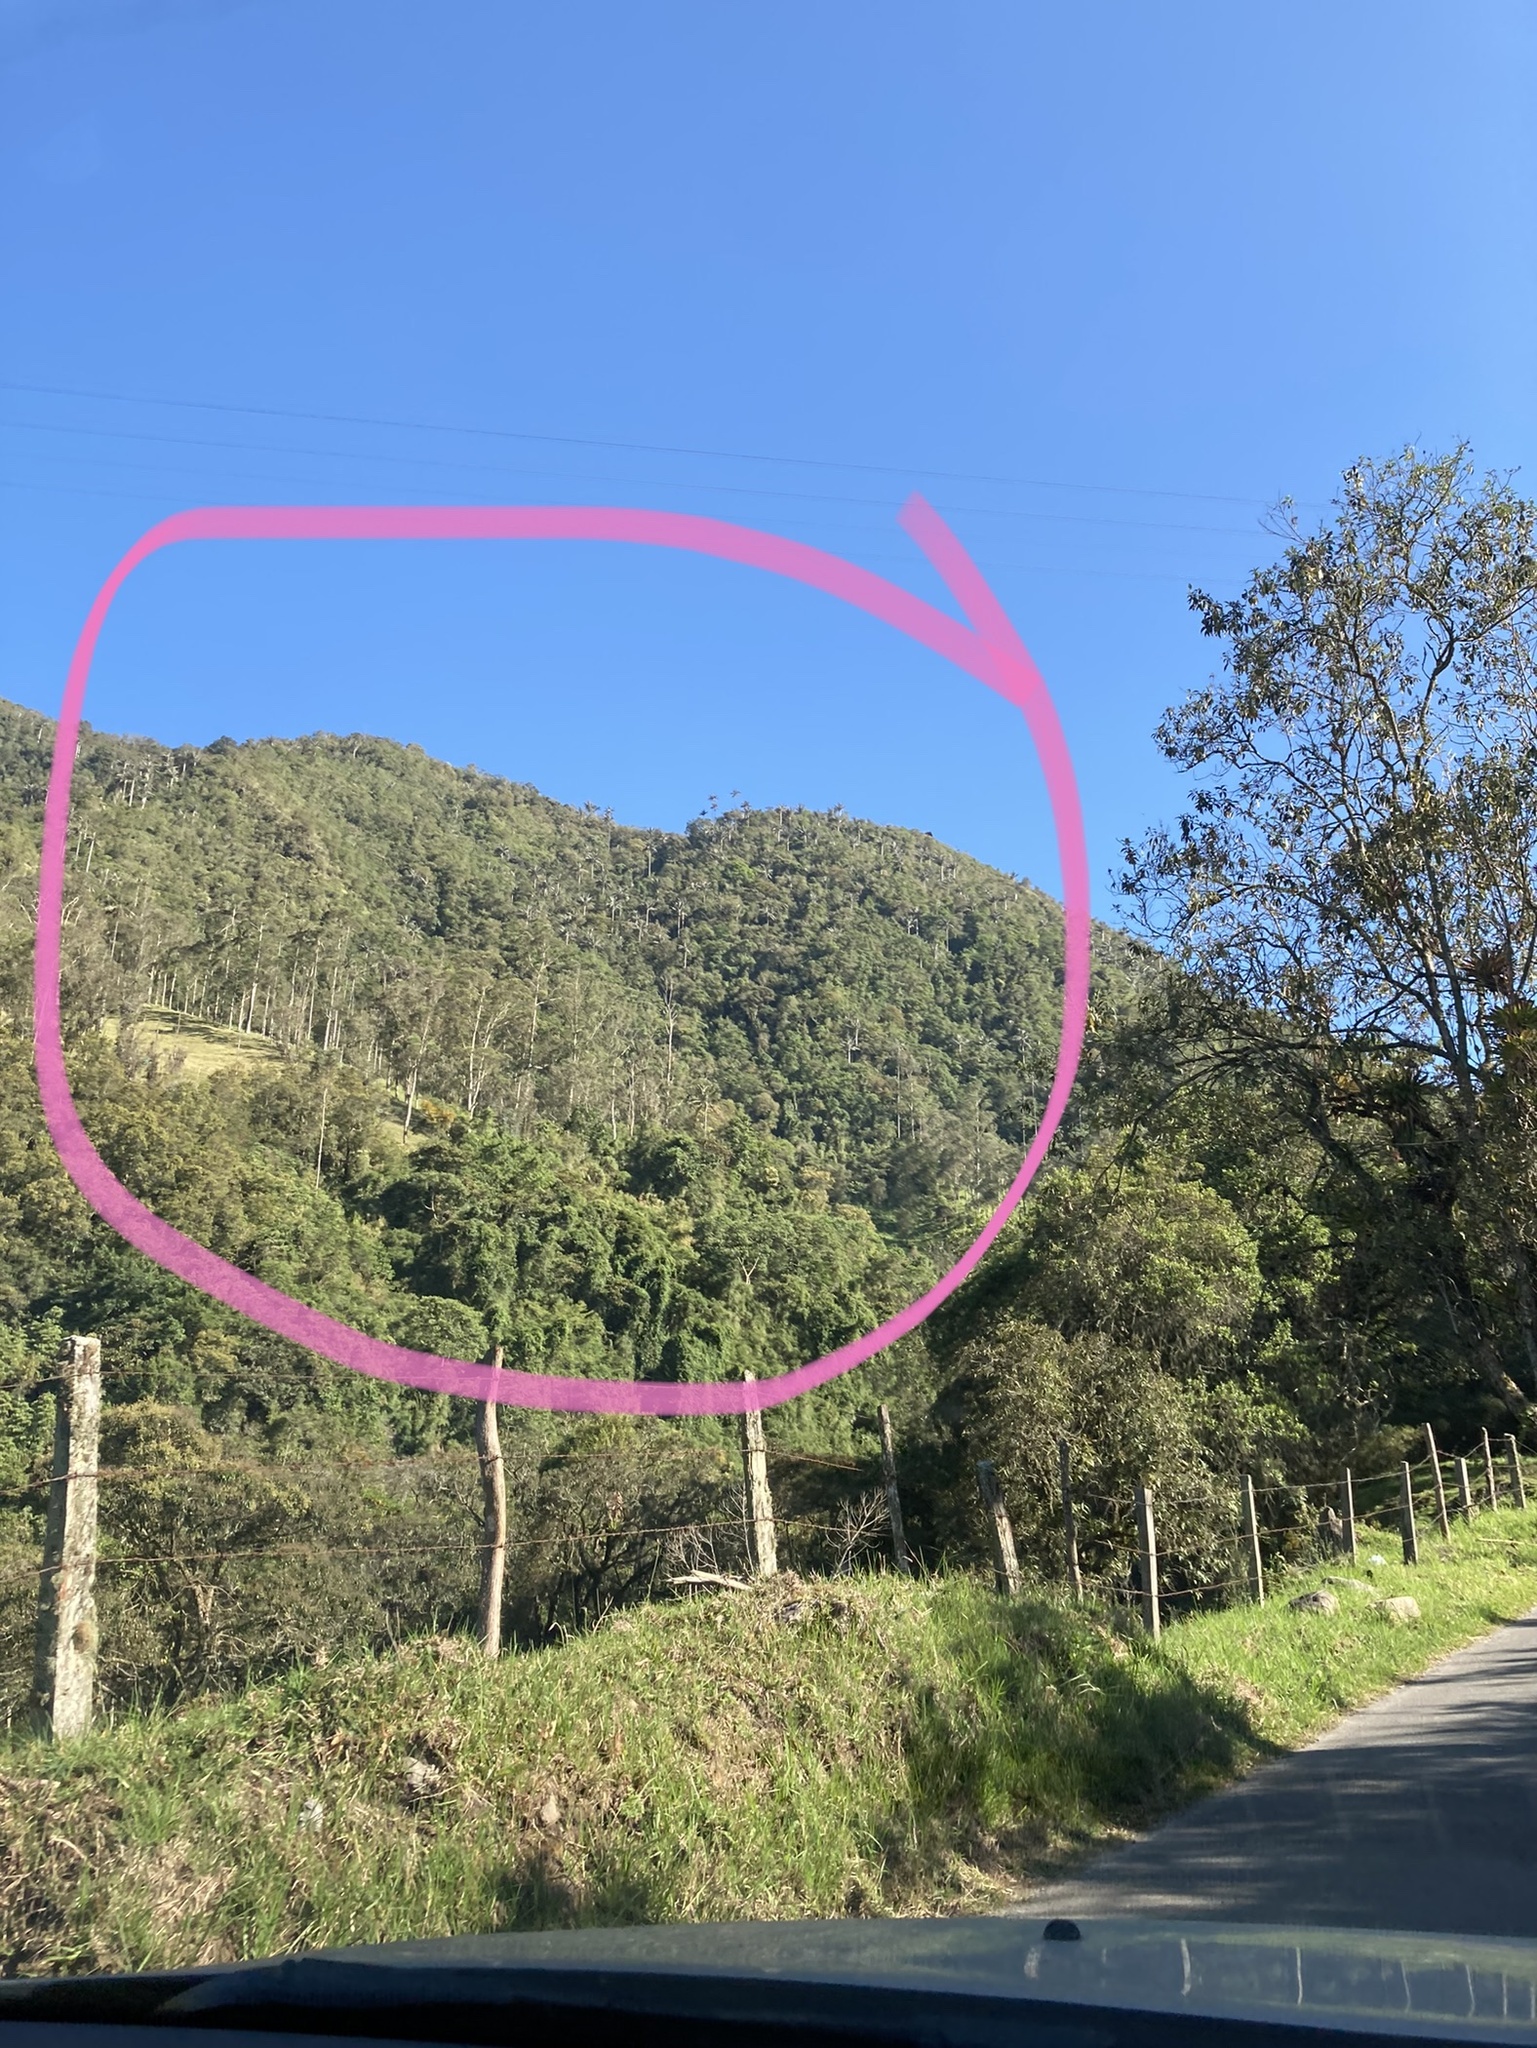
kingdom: Plantae
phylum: Tracheophyta
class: Liliopsida
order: Arecales
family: Arecaceae
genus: Ceroxylon
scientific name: Ceroxylon quindiuense
